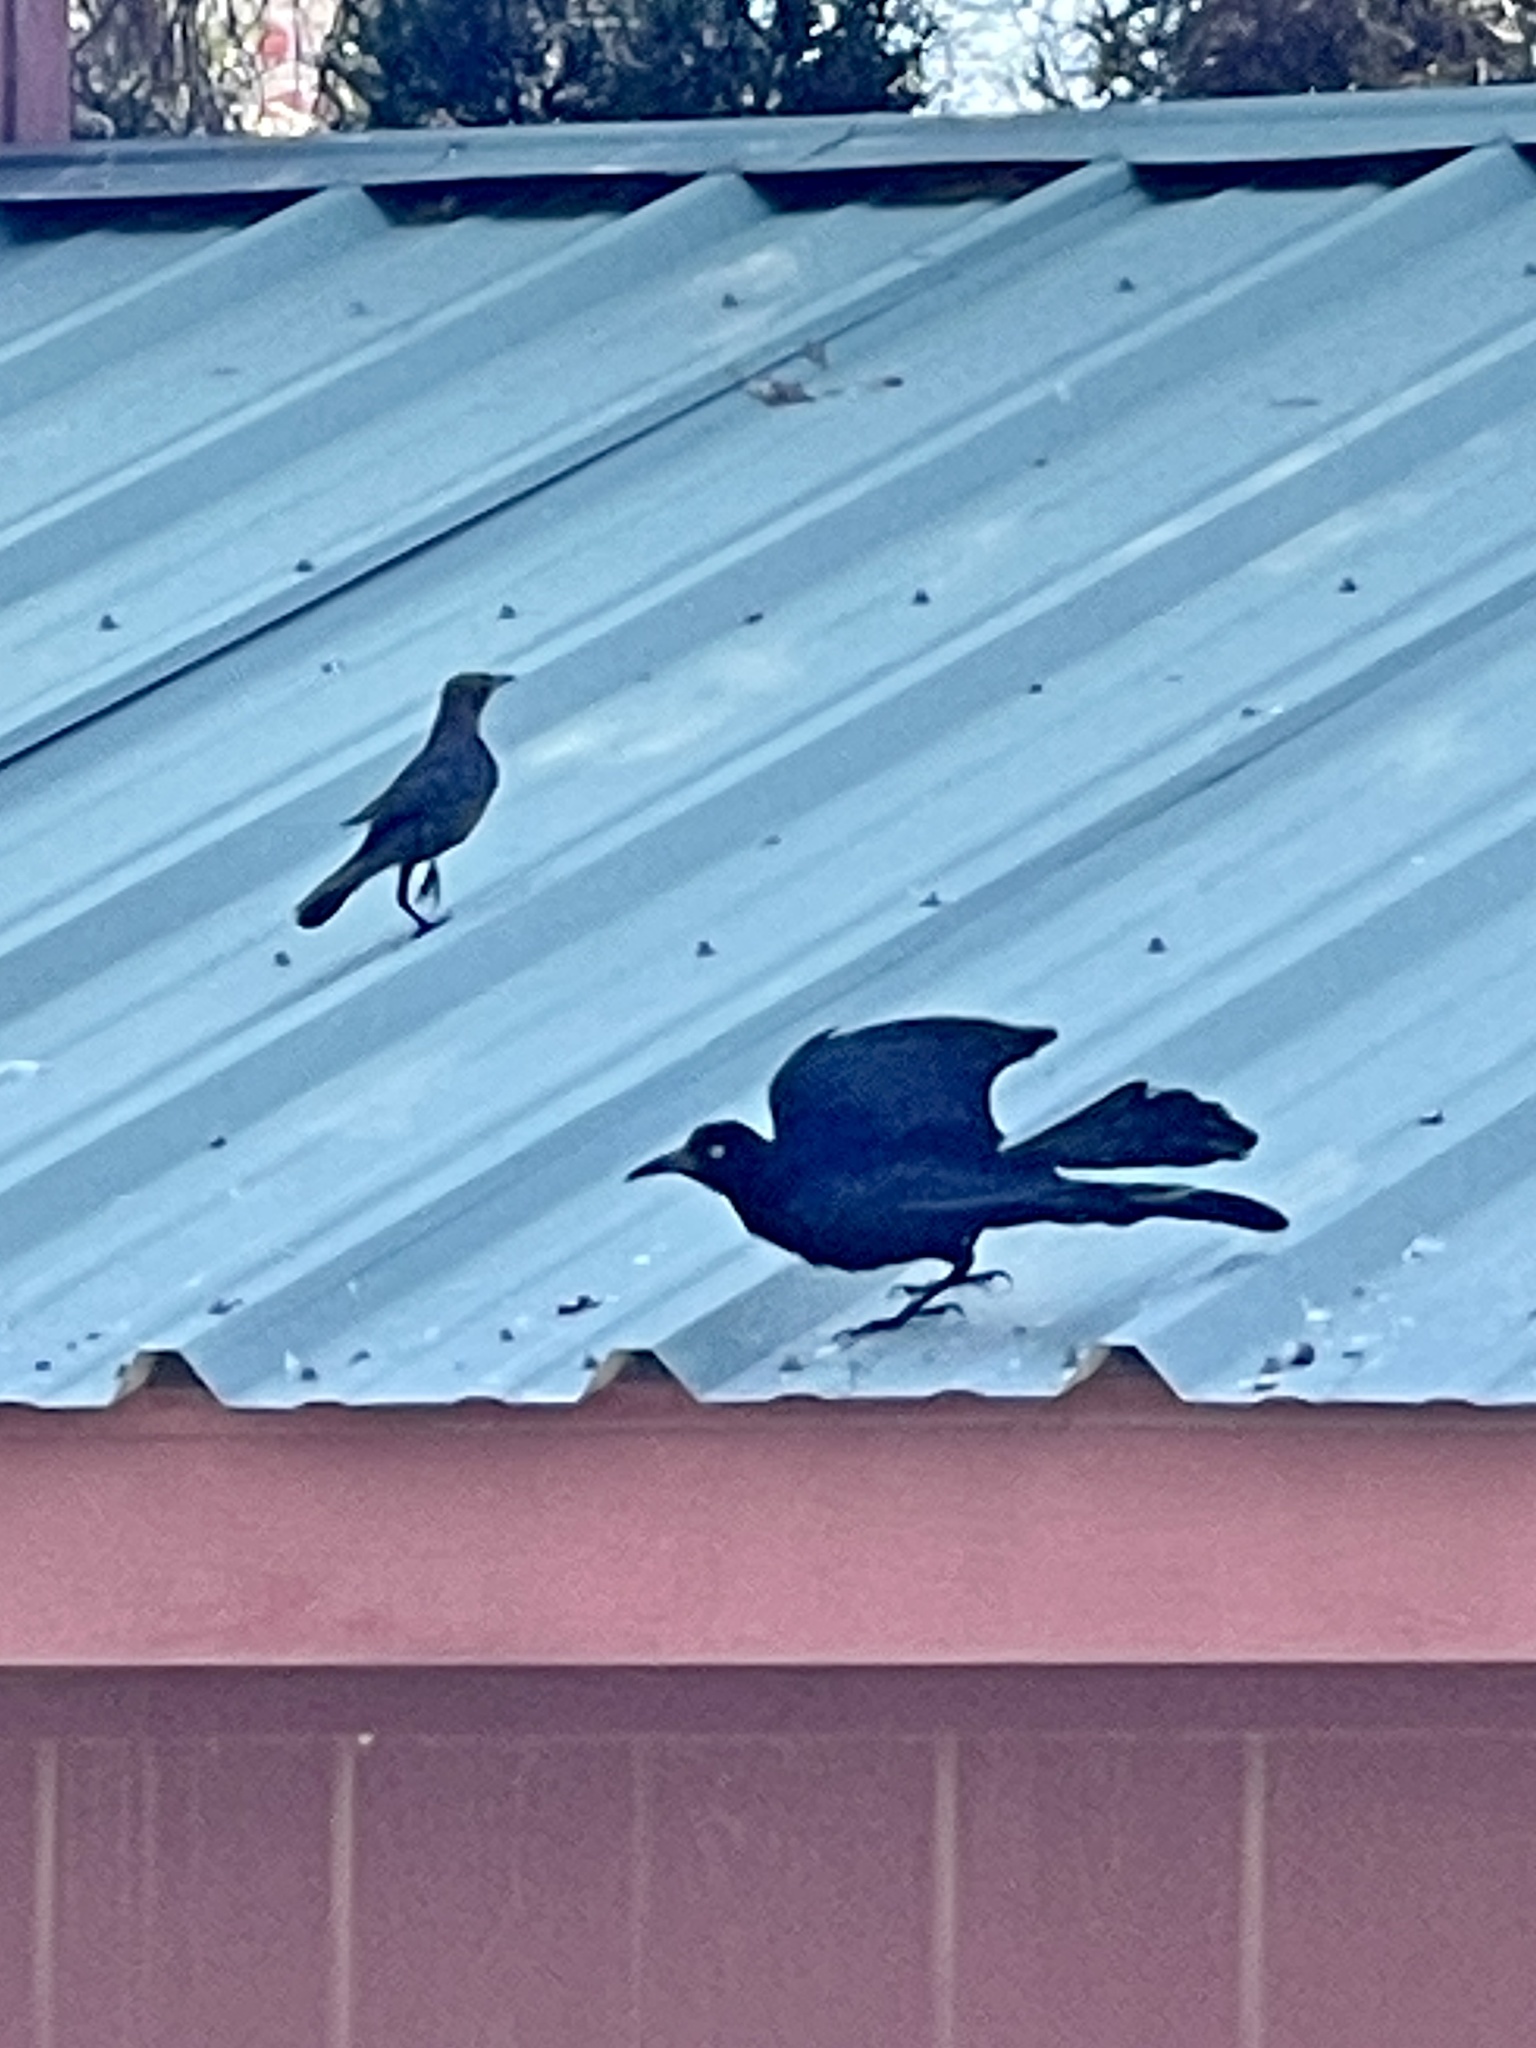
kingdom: Animalia
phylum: Chordata
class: Aves
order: Passeriformes
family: Icteridae
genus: Quiscalus
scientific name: Quiscalus mexicanus
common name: Great-tailed grackle
